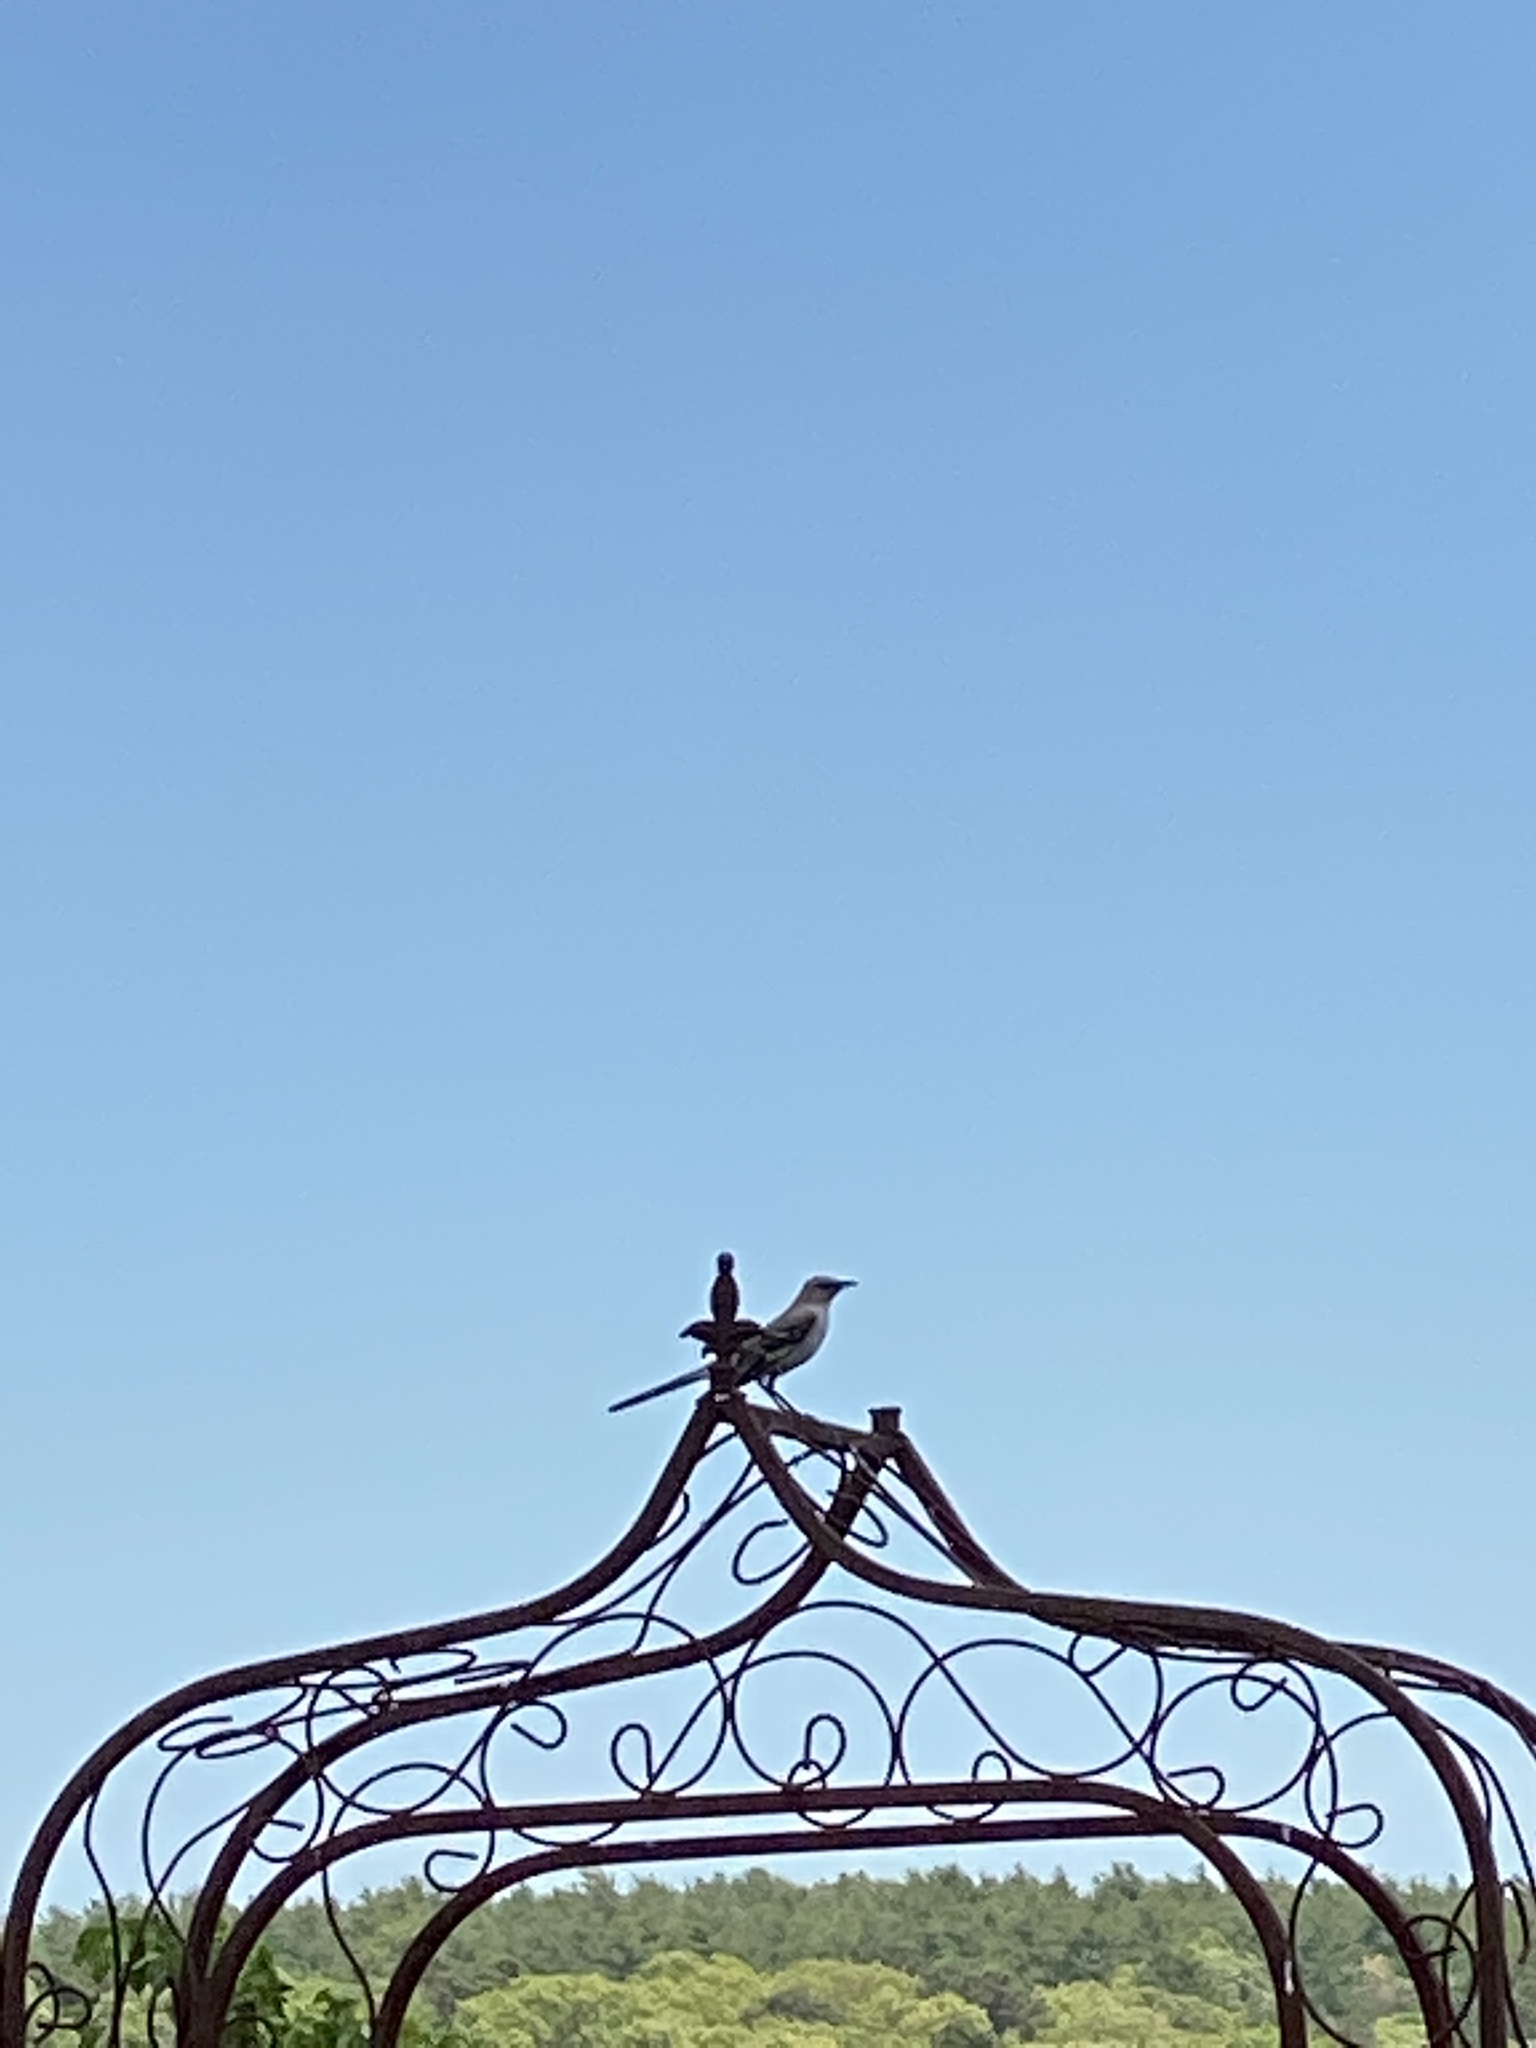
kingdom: Animalia
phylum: Chordata
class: Aves
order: Passeriformes
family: Mimidae
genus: Mimus
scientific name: Mimus polyglottos
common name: Northern mockingbird
